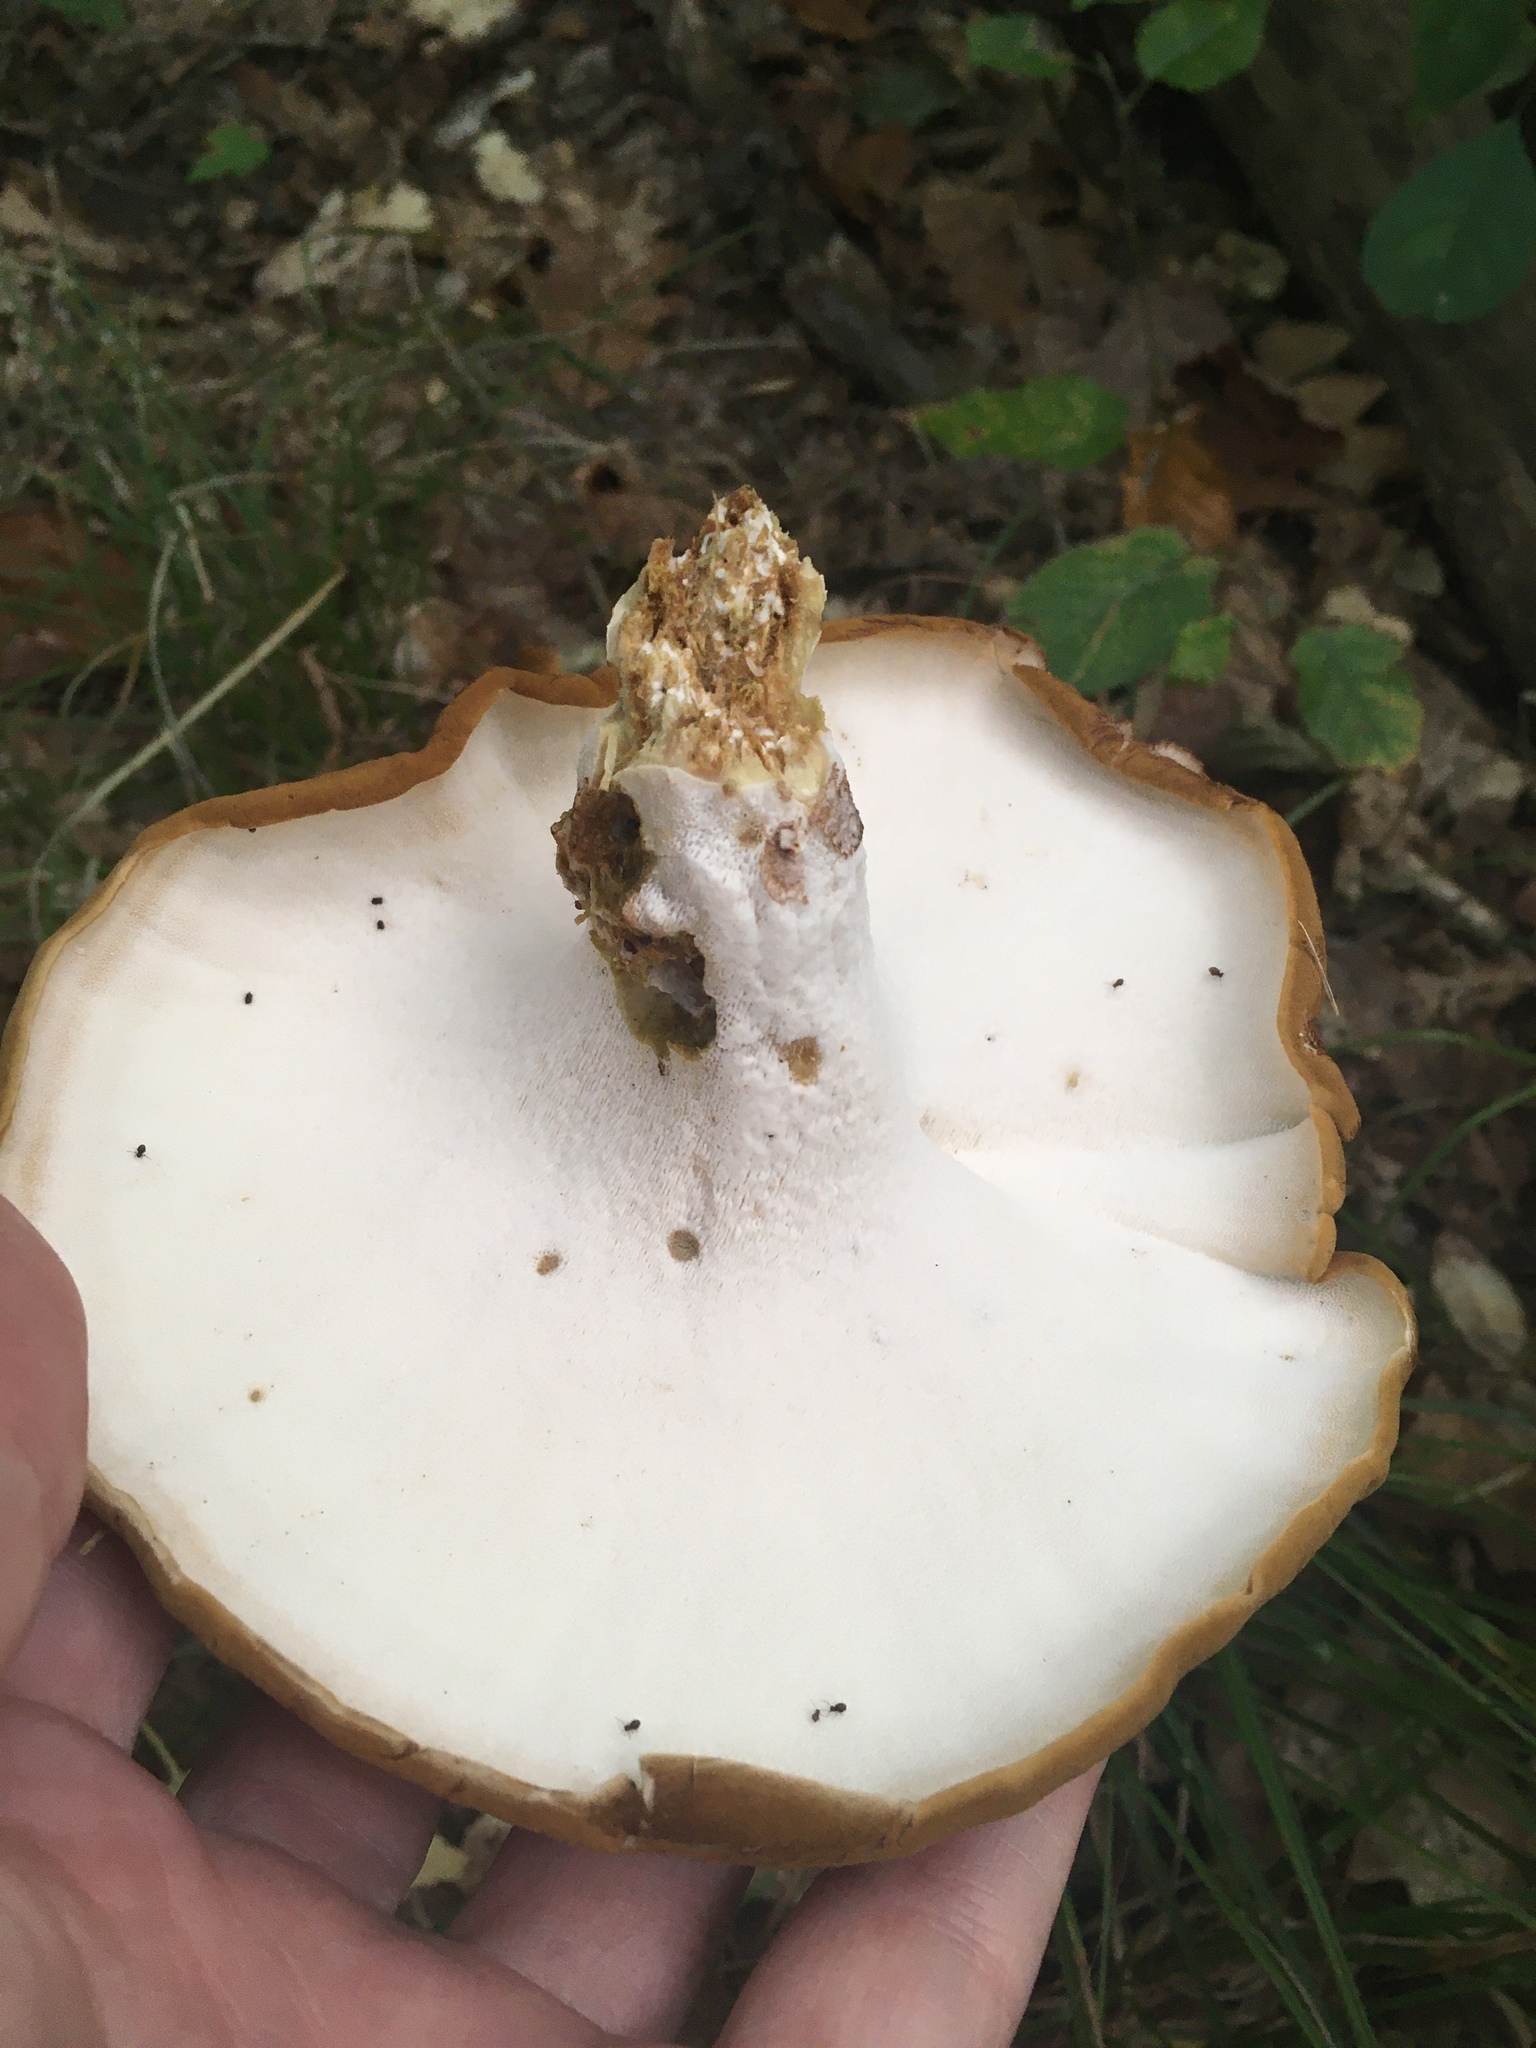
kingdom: Fungi
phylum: Basidiomycota
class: Agaricomycetes
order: Russulales
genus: Laeticutis
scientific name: Laeticutis cristata
